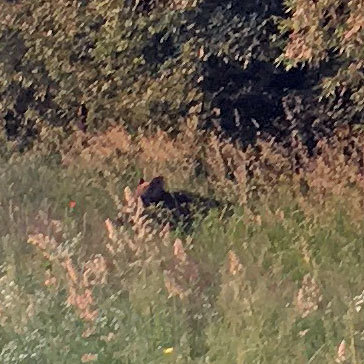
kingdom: Animalia
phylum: Chordata
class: Mammalia
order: Artiodactyla
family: Suidae
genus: Sus
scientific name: Sus scrofa
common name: Wild boar
